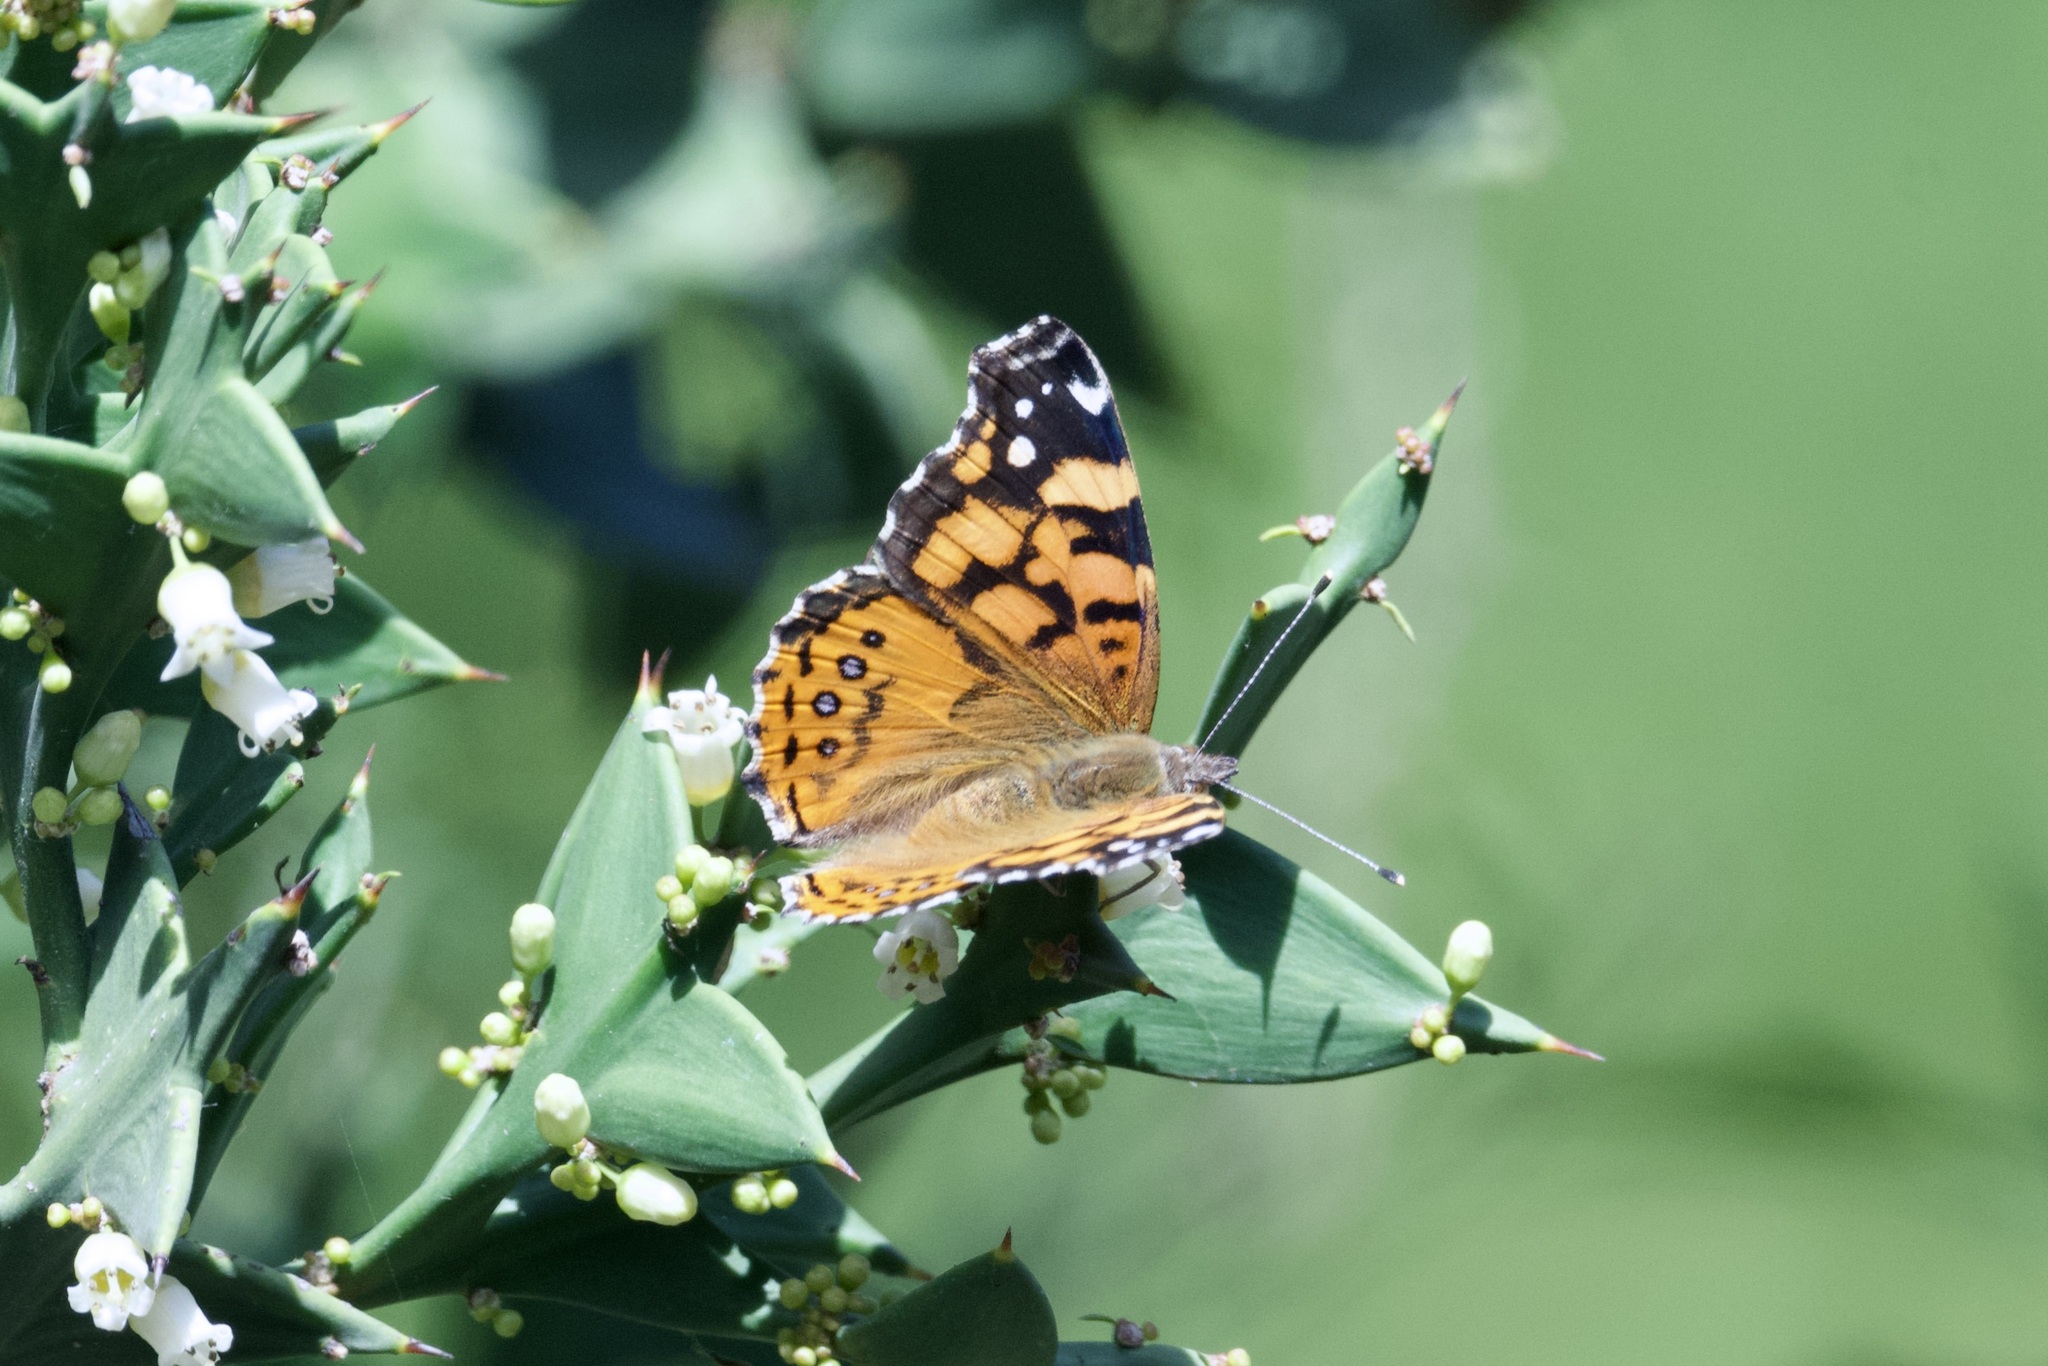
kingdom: Animalia
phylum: Arthropoda
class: Insecta
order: Lepidoptera
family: Nymphalidae
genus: Vanessa
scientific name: Vanessa annabella
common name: West coast lady
